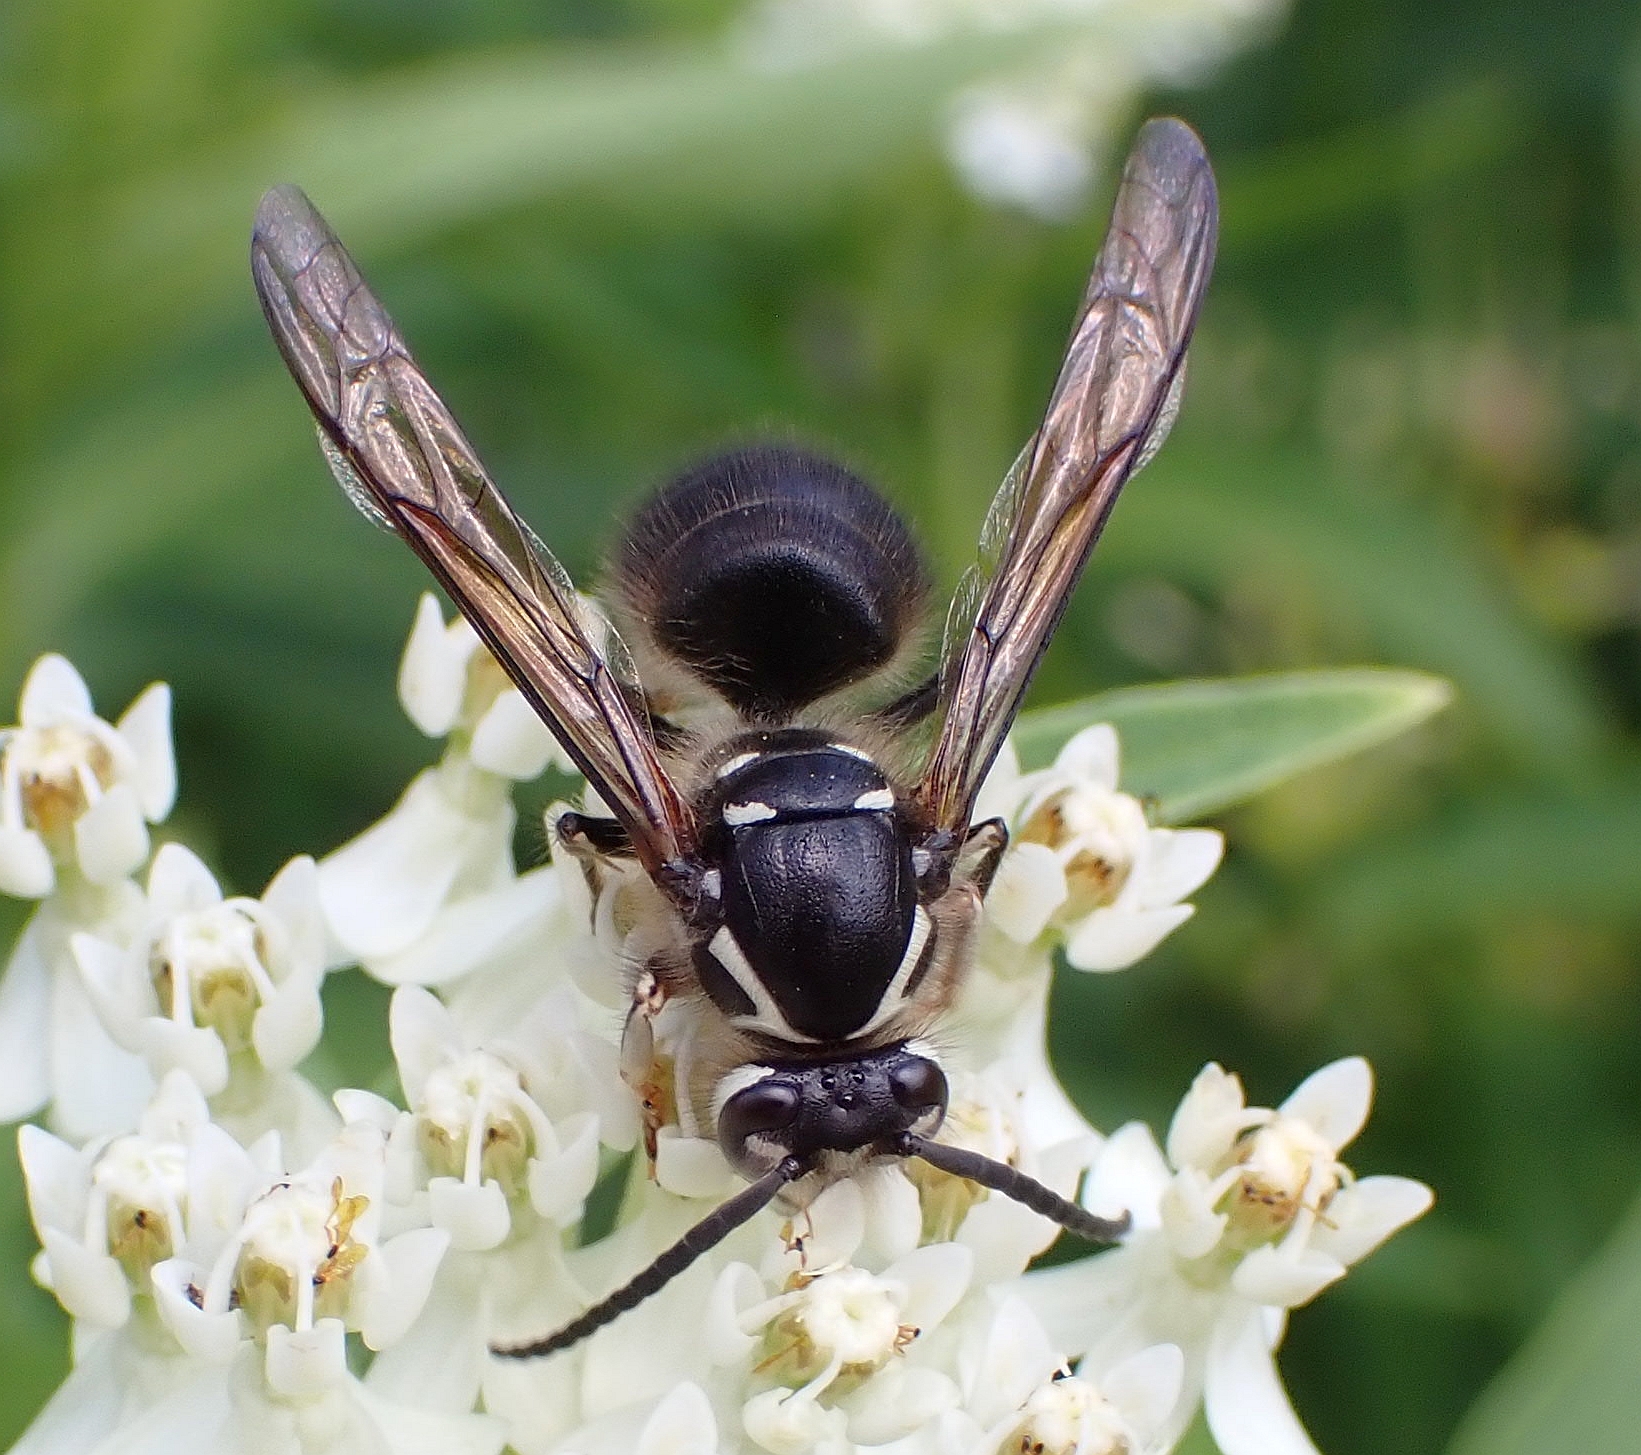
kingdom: Animalia
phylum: Arthropoda
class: Insecta
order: Hymenoptera
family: Vespidae
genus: Dolichovespula
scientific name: Dolichovespula maculata
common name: Bald-faced hornet
